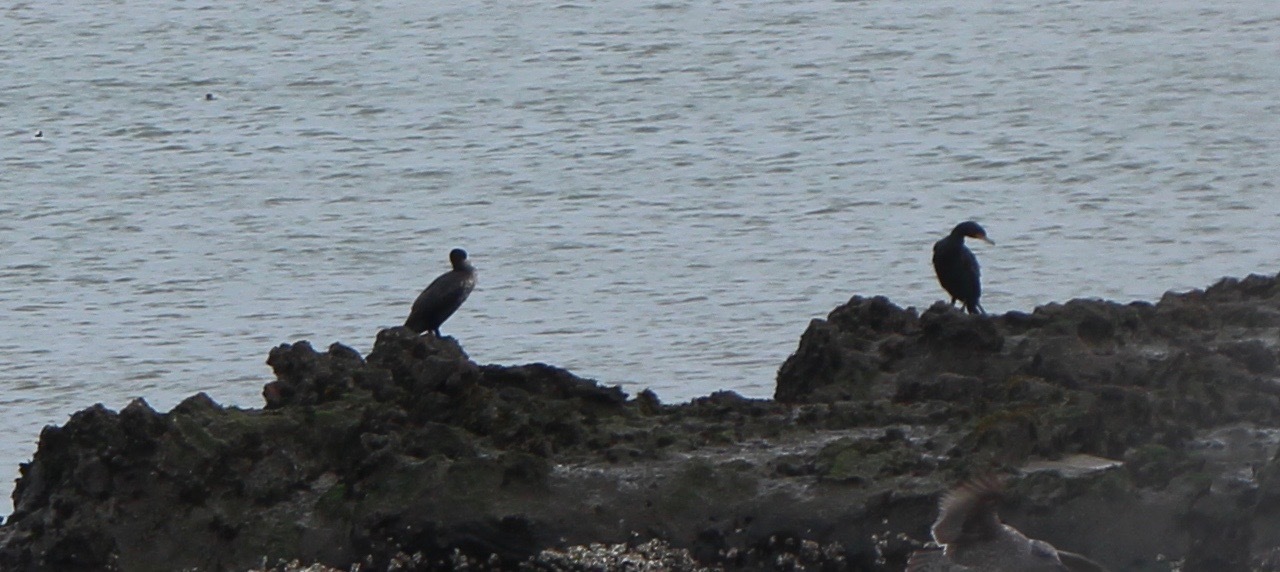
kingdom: Animalia
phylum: Chordata
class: Aves
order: Suliformes
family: Phalacrocoracidae
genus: Phalacrocorax
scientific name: Phalacrocorax auritus
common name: Double-crested cormorant
